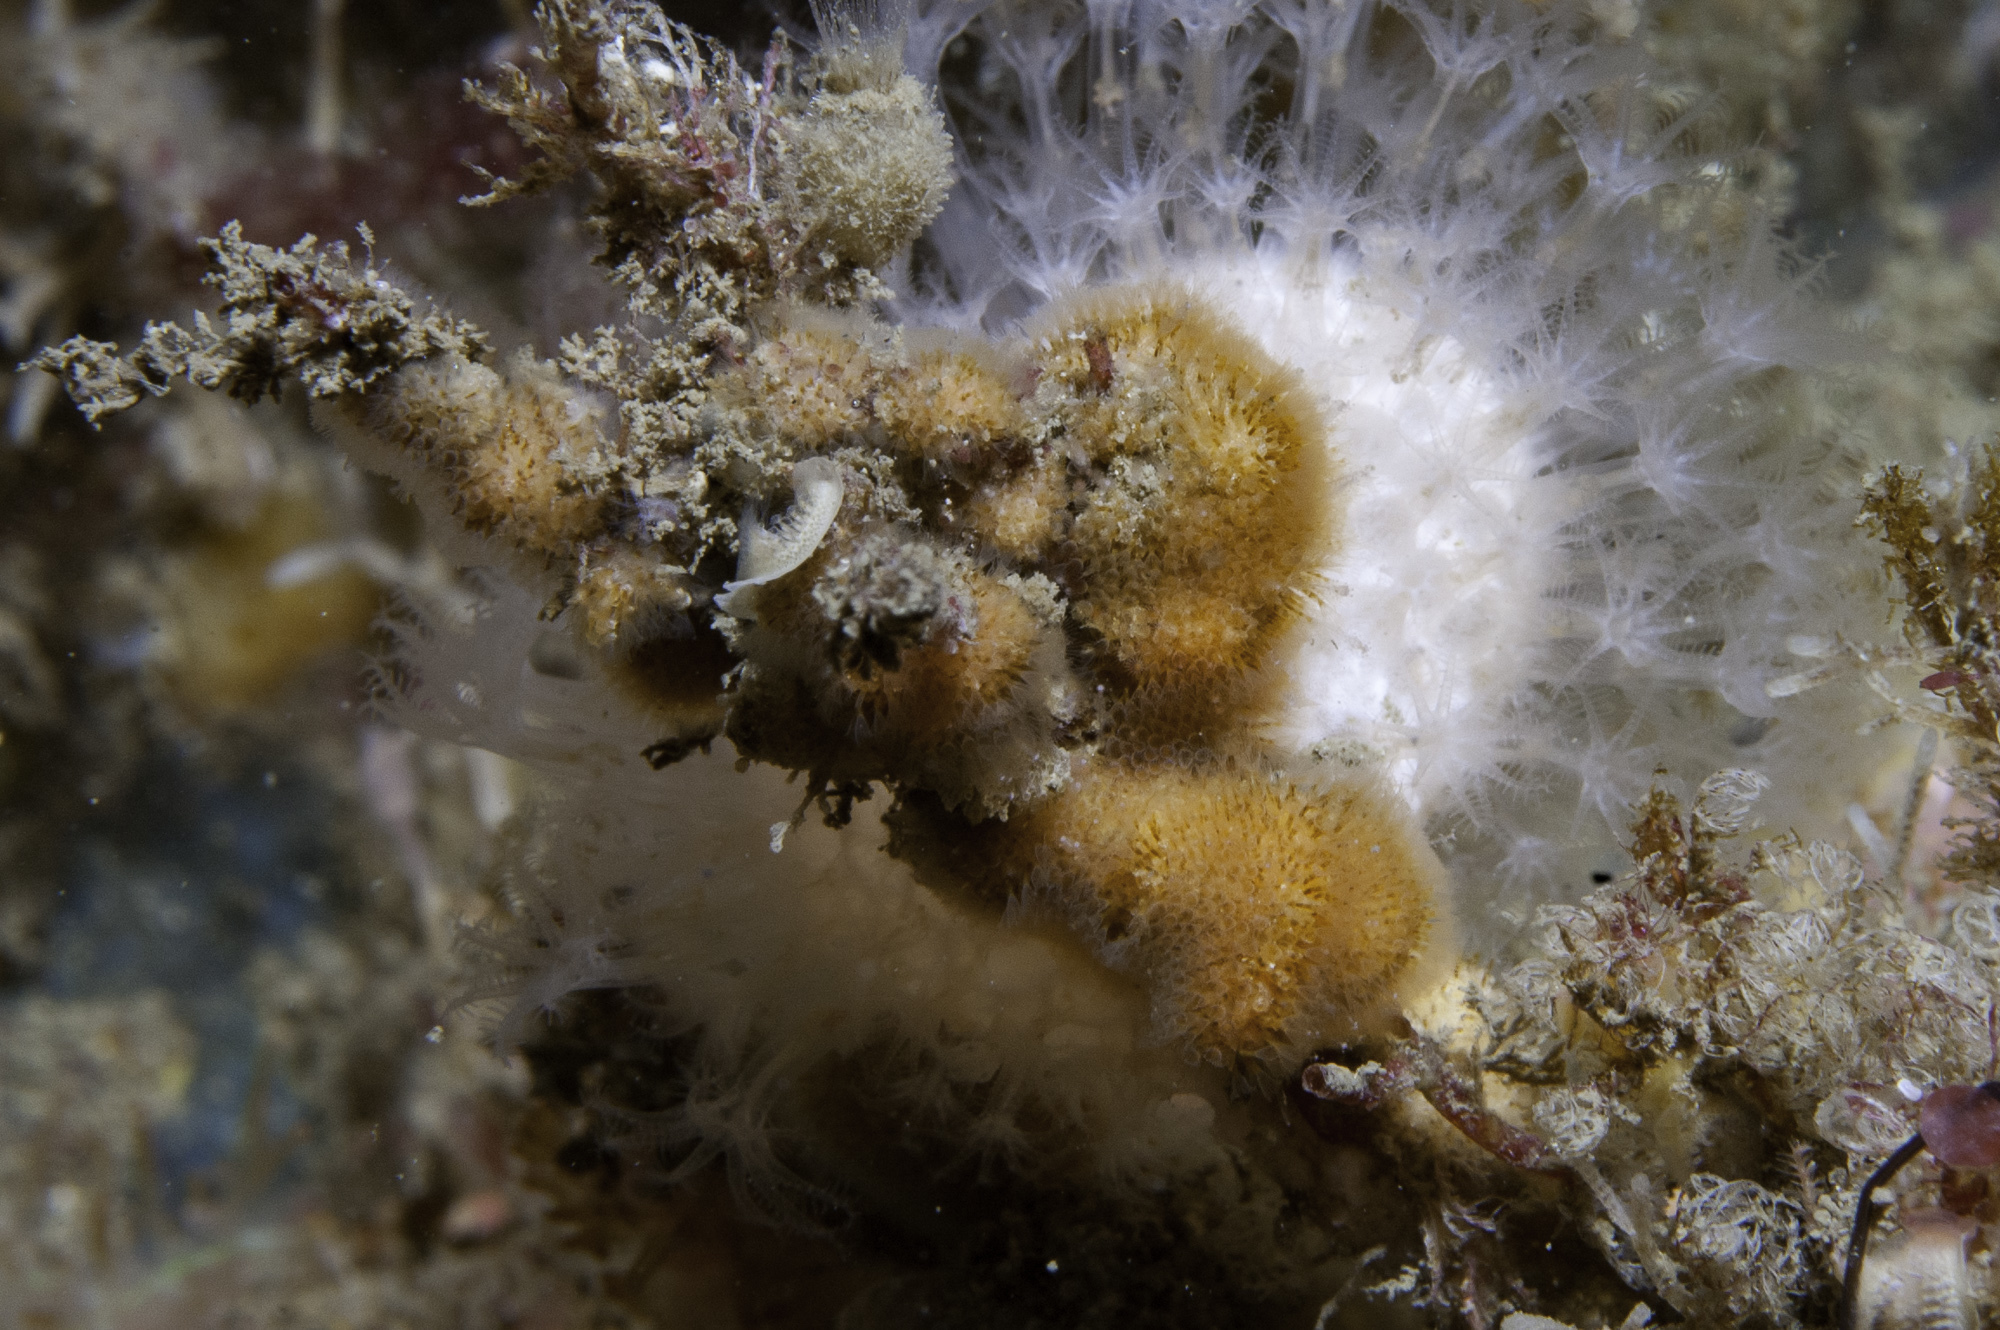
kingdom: Animalia
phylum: Bryozoa
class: Gymnolaemata
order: Cheilostomatida
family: Celleporidae
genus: Turbicellepora
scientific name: Turbicellepora avicularis
